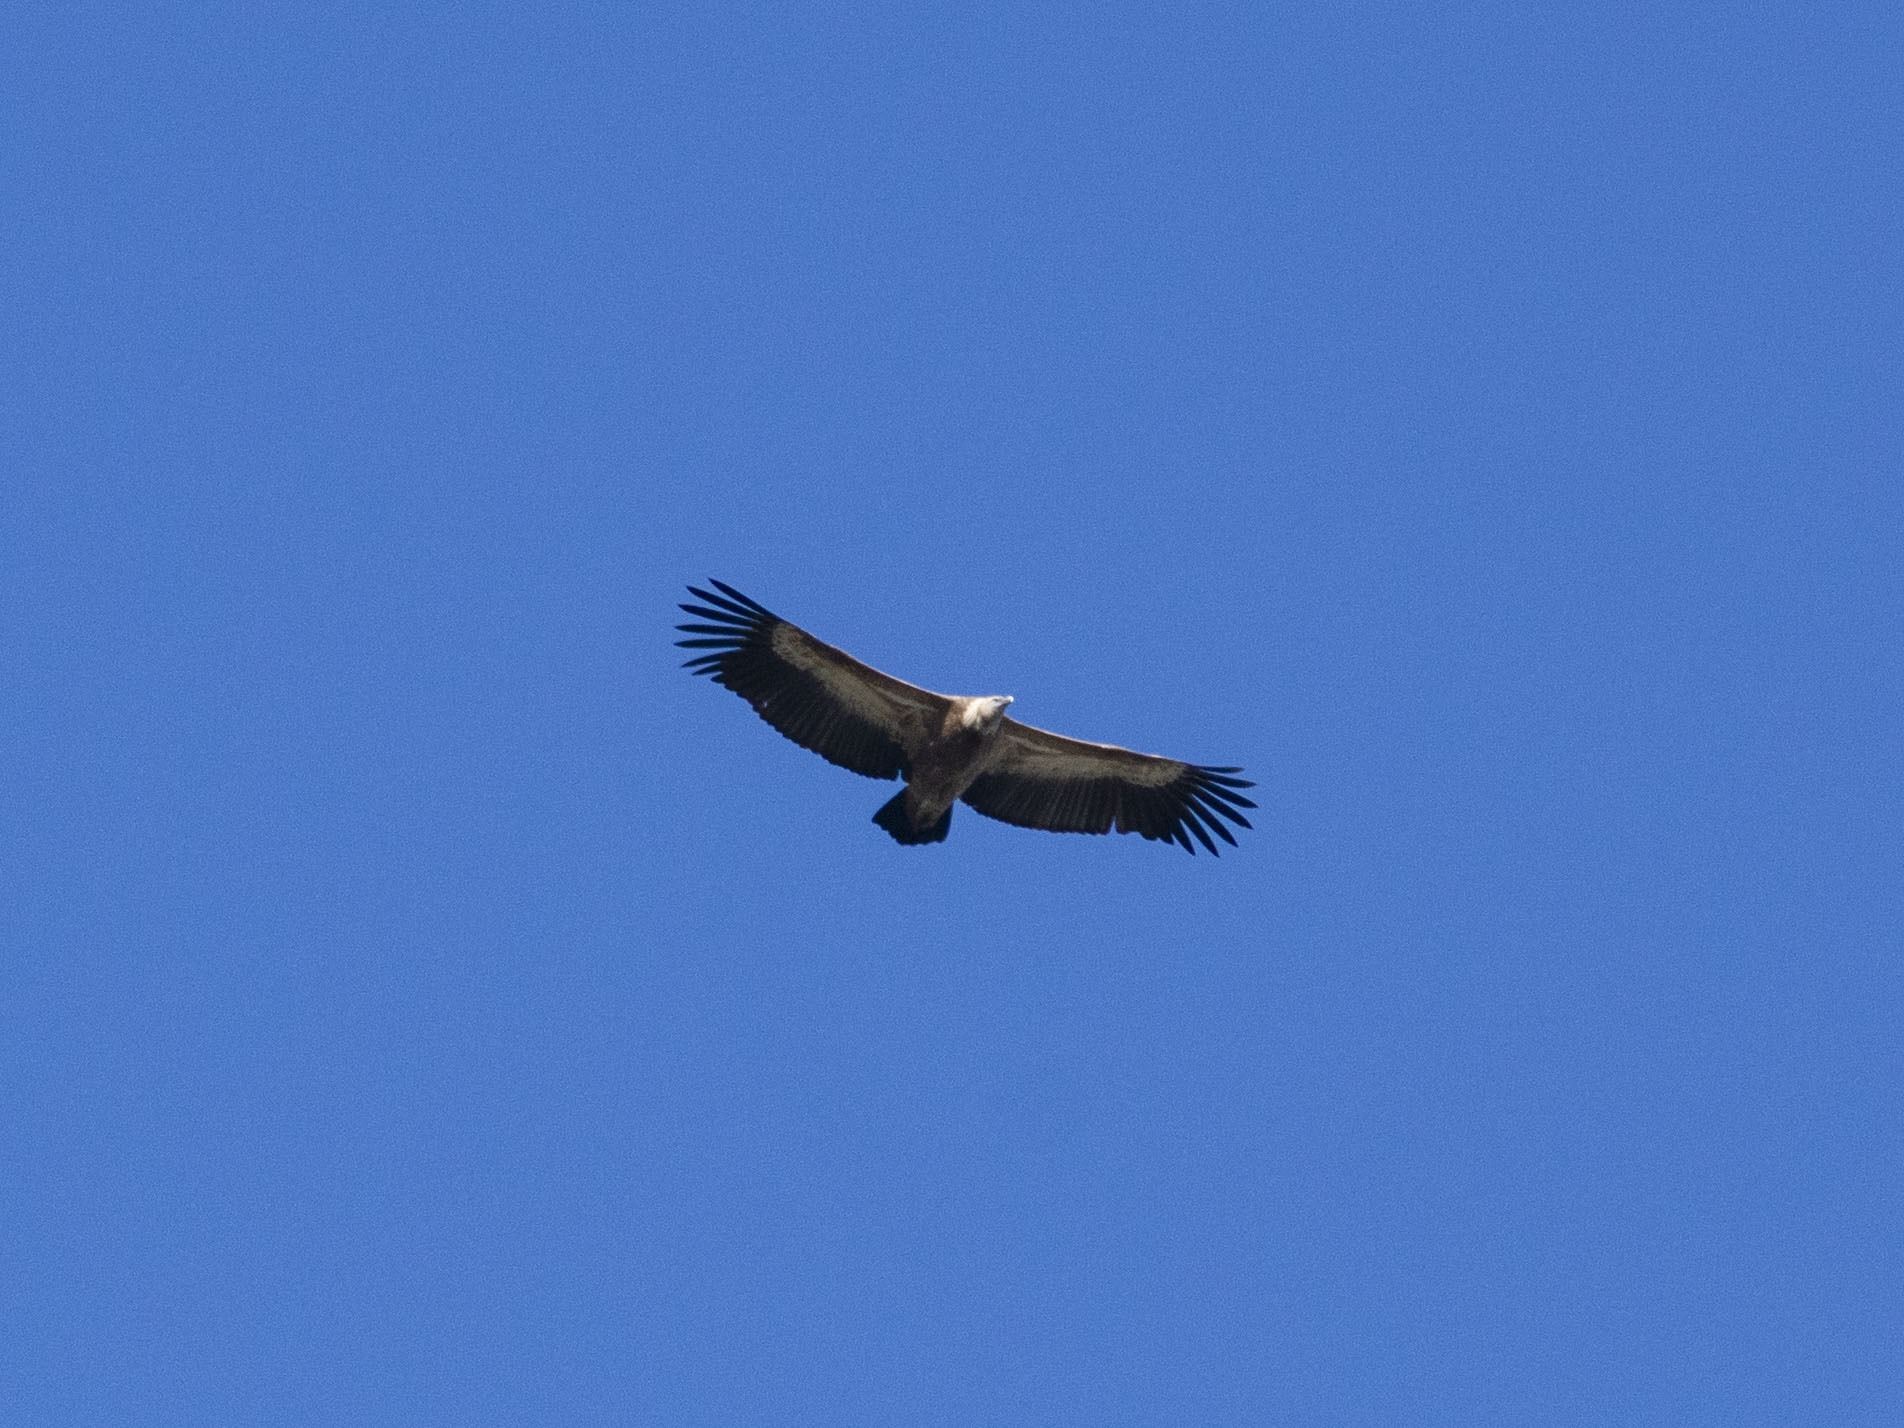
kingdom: Animalia
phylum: Chordata
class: Aves
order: Accipitriformes
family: Accipitridae
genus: Gyps
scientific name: Gyps fulvus
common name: Griffon vulture
